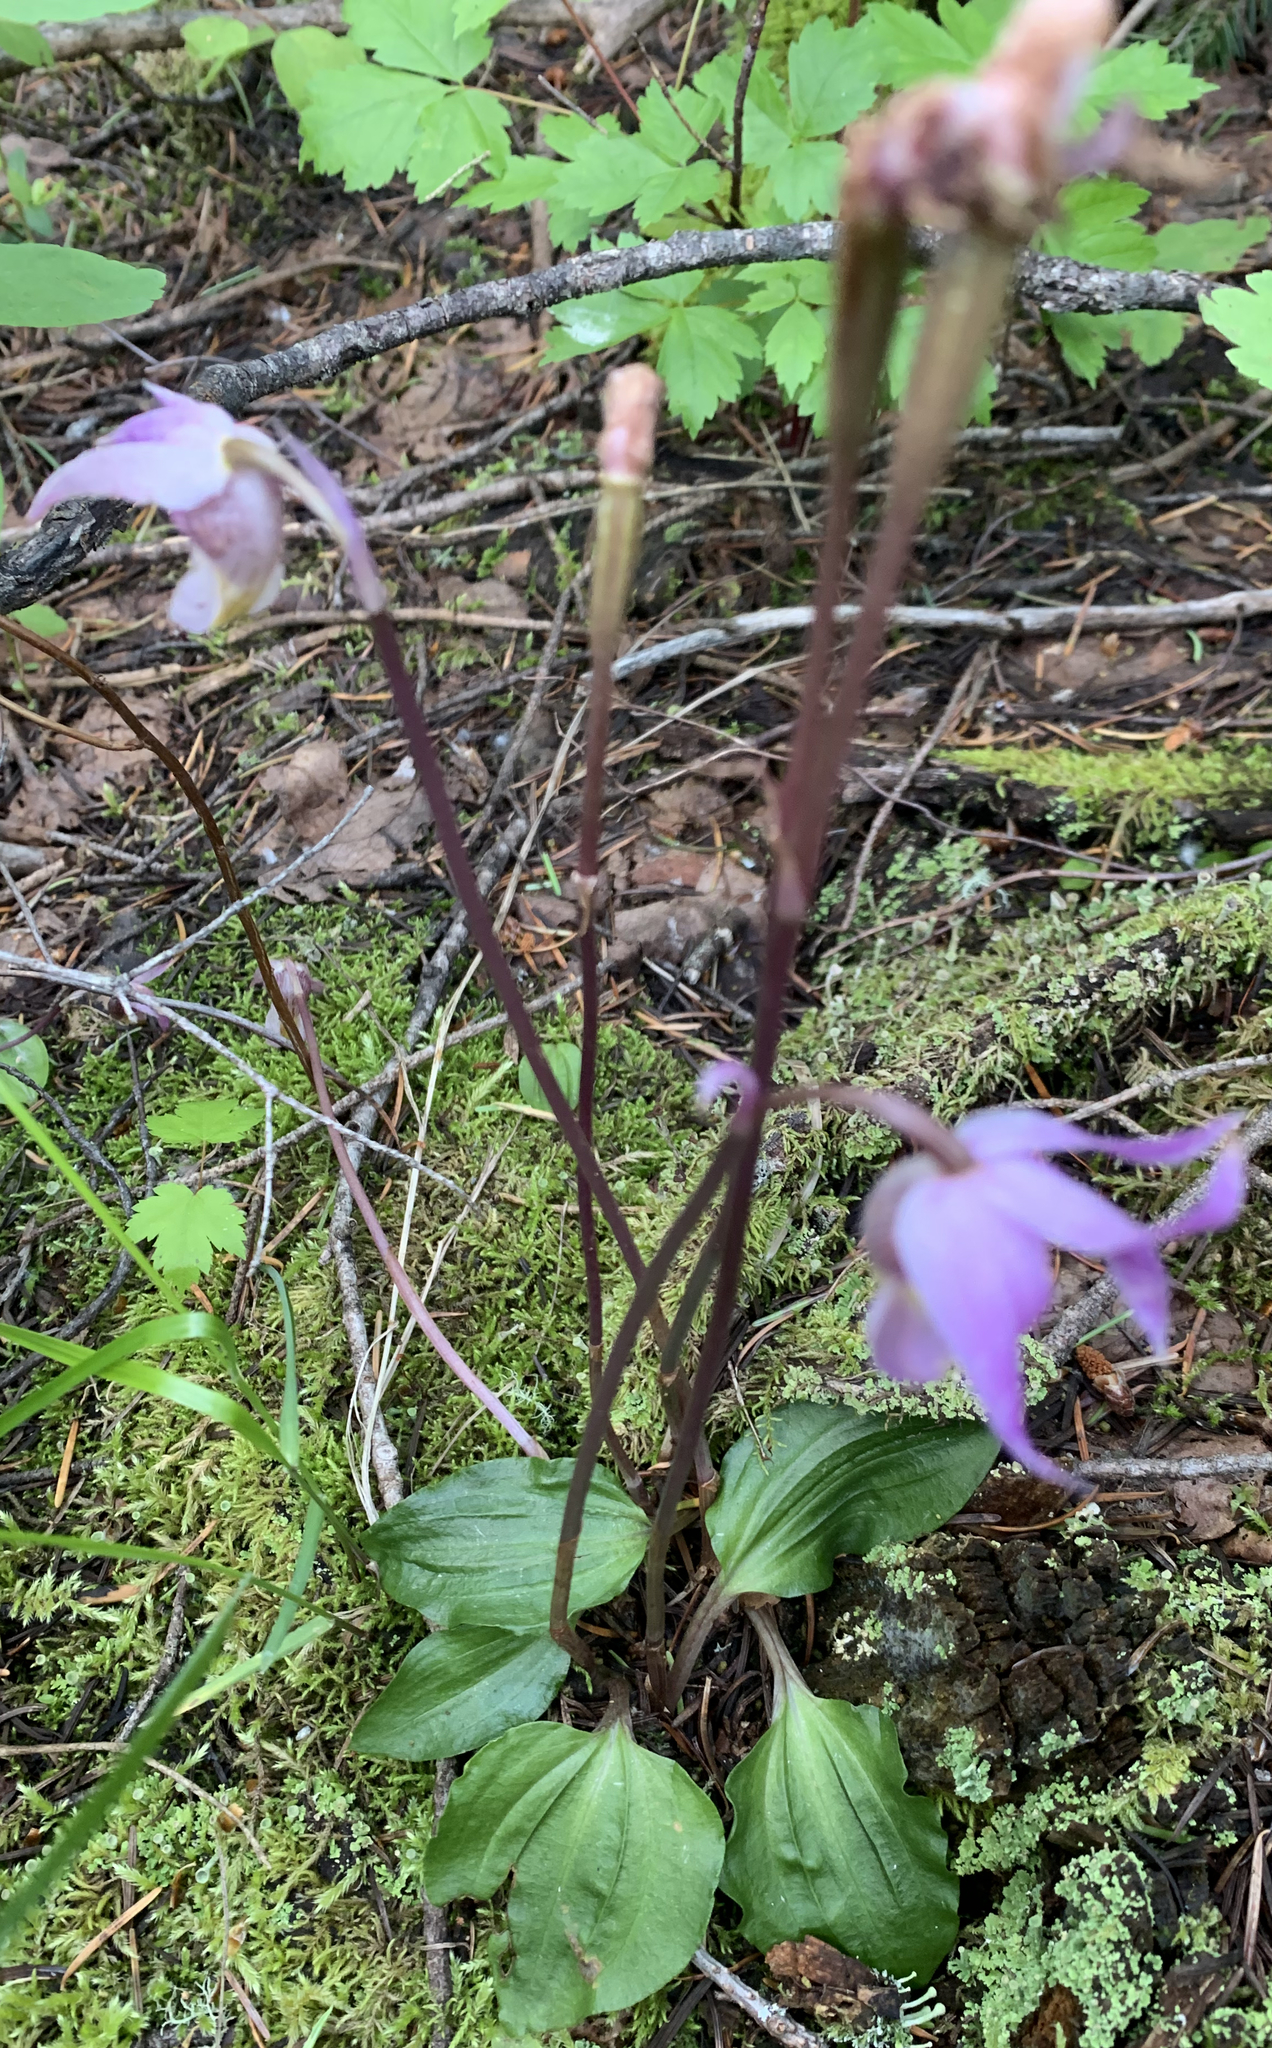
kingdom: Plantae
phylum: Tracheophyta
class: Liliopsida
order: Asparagales
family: Orchidaceae
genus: Calypso
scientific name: Calypso bulbosa
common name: Calypso
